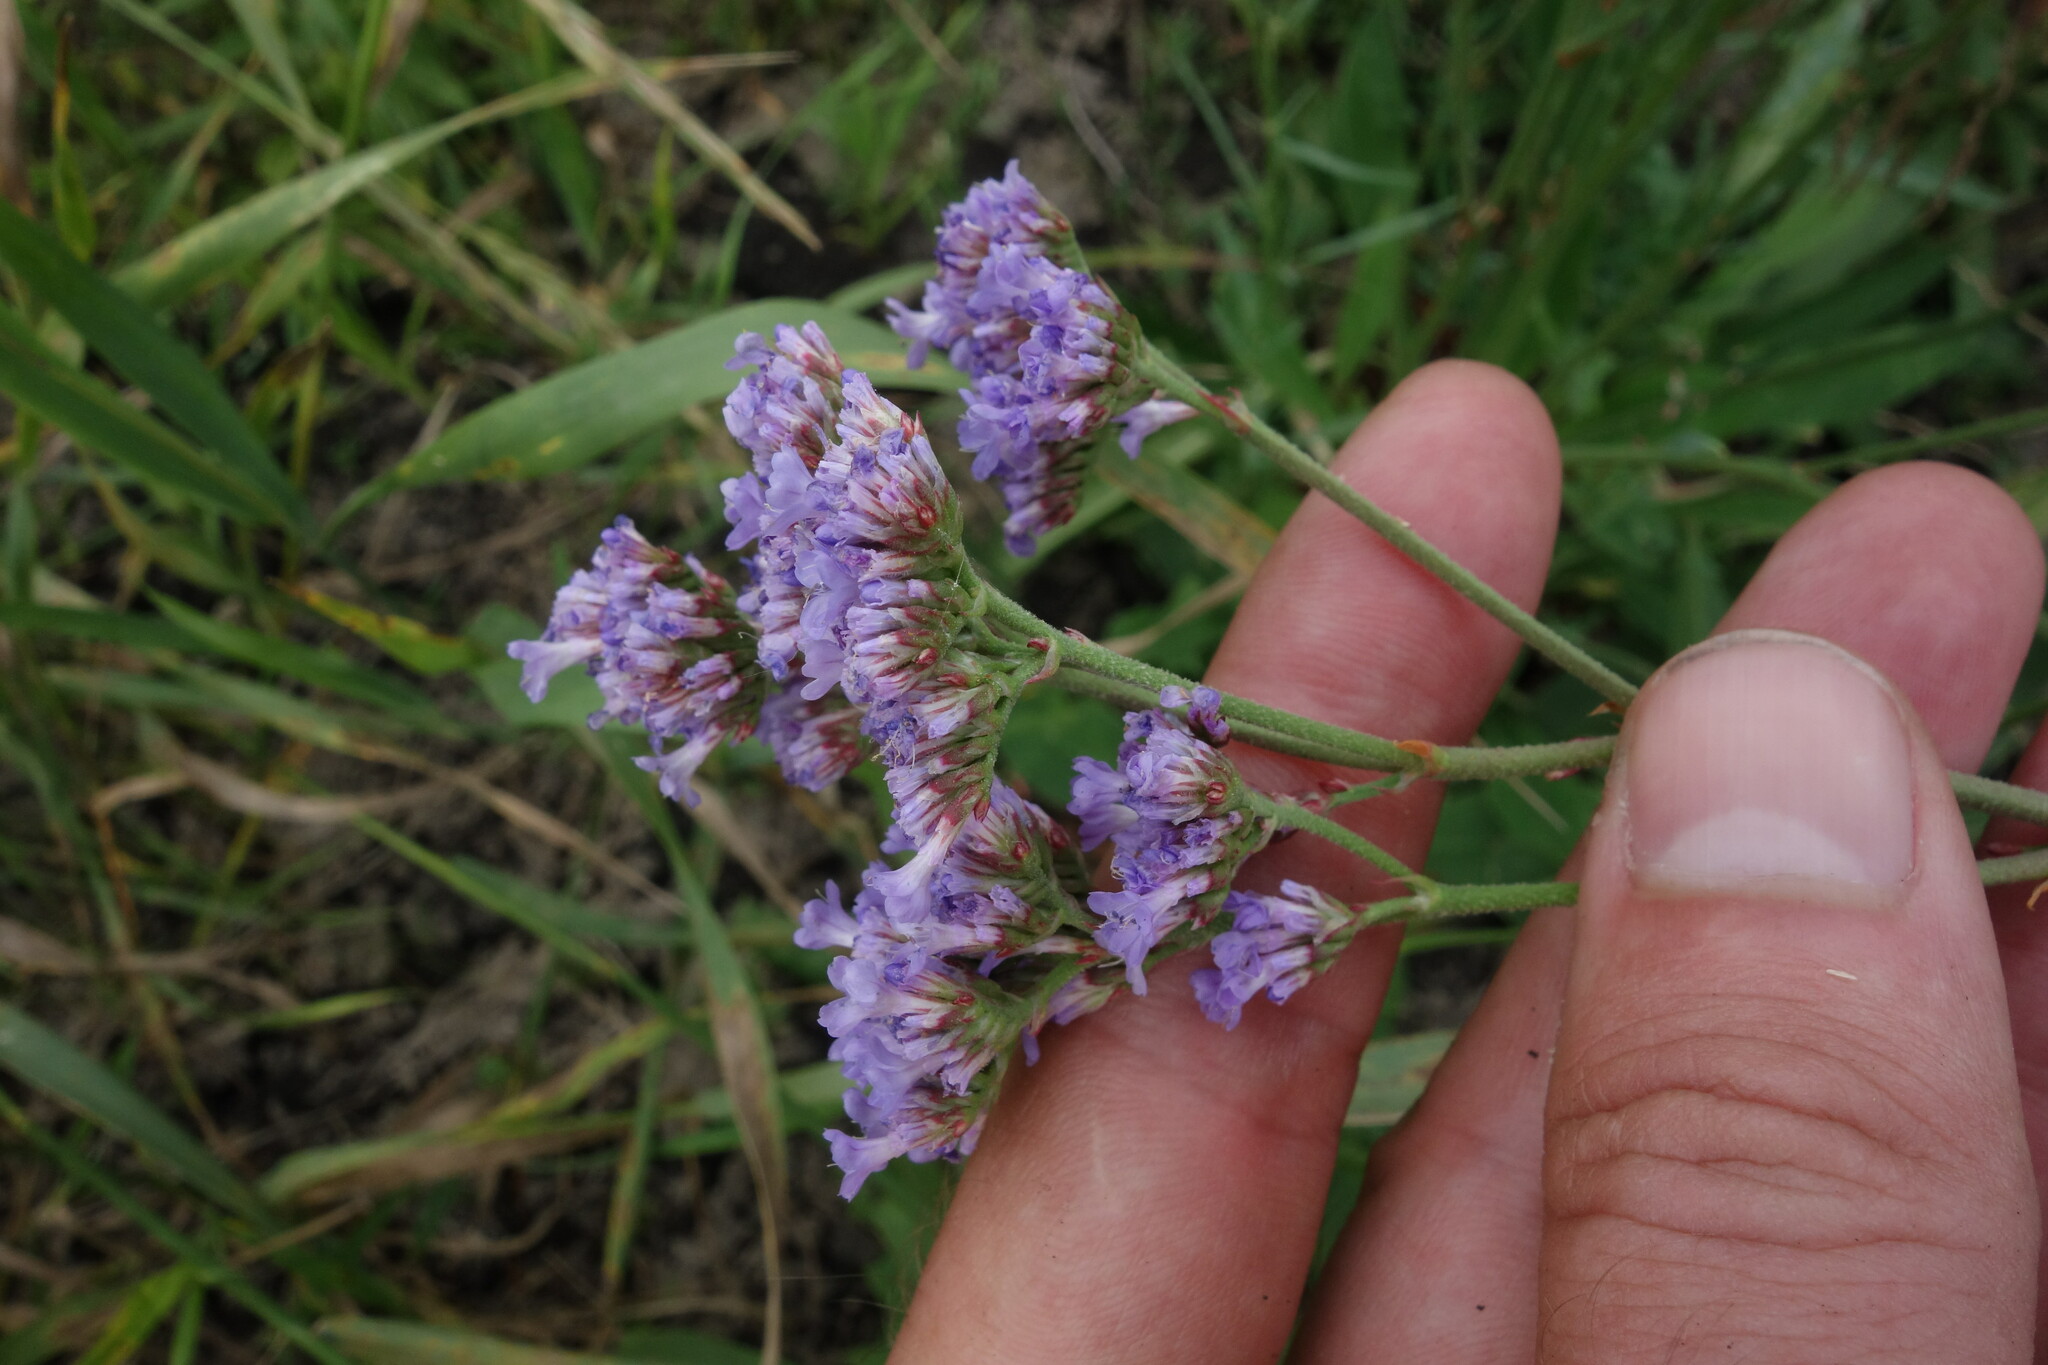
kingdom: Plantae
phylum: Tracheophyta
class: Magnoliopsida
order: Caryophyllales
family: Plumbaginaceae
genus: Limonium
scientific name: Limonium tomentellum
